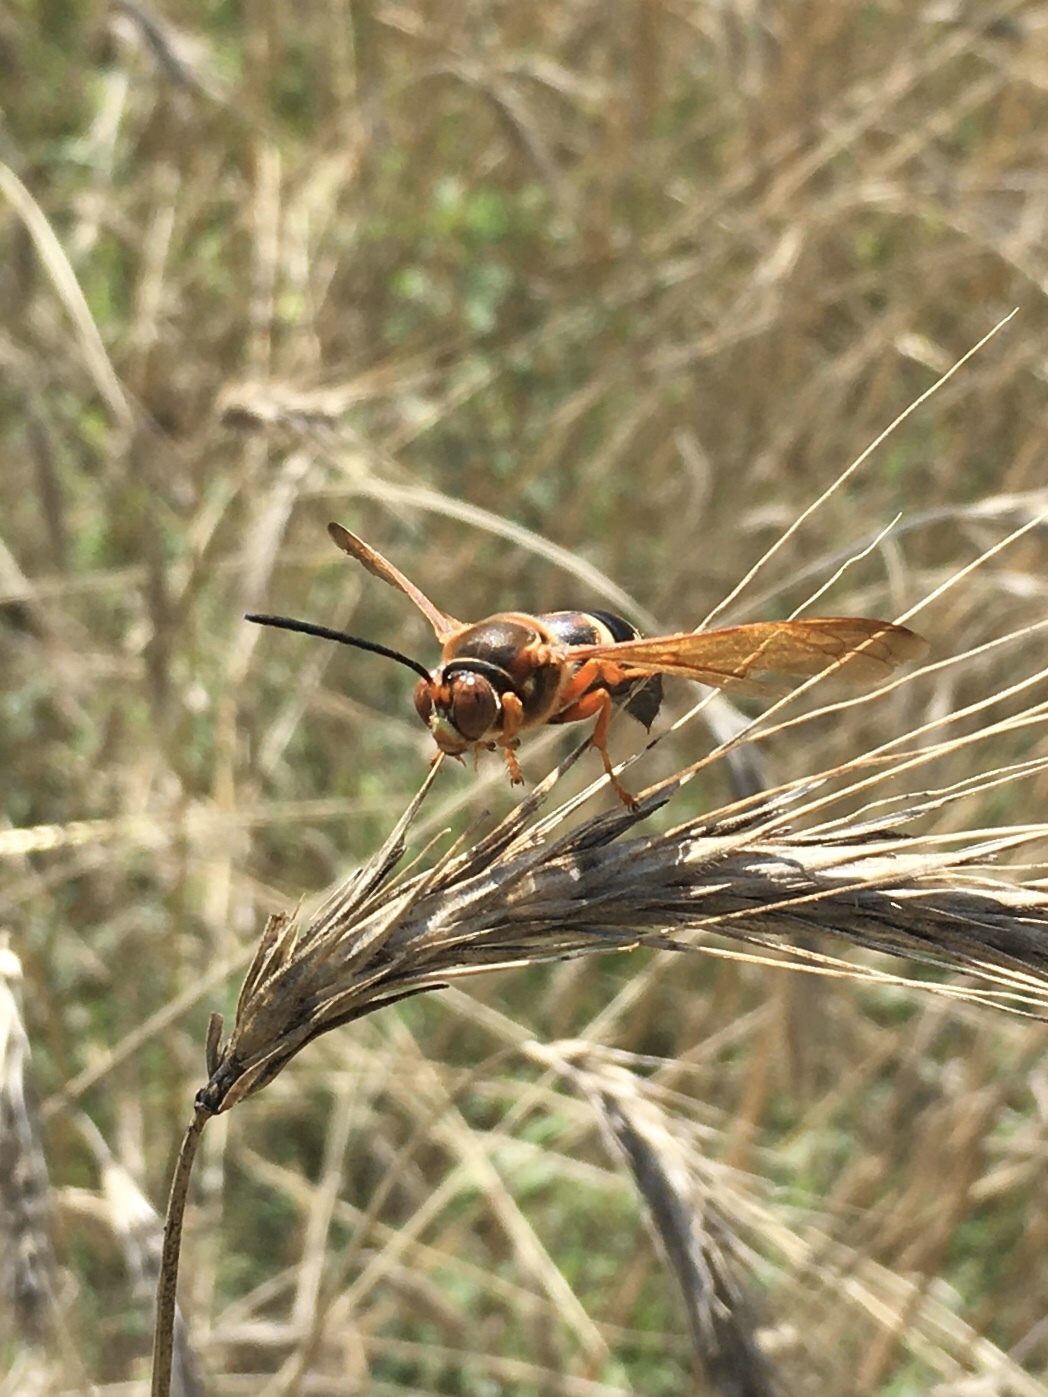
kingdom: Animalia
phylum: Arthropoda
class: Insecta
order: Hymenoptera
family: Crabronidae
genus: Sphecius
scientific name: Sphecius speciosus
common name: Cicada killer
